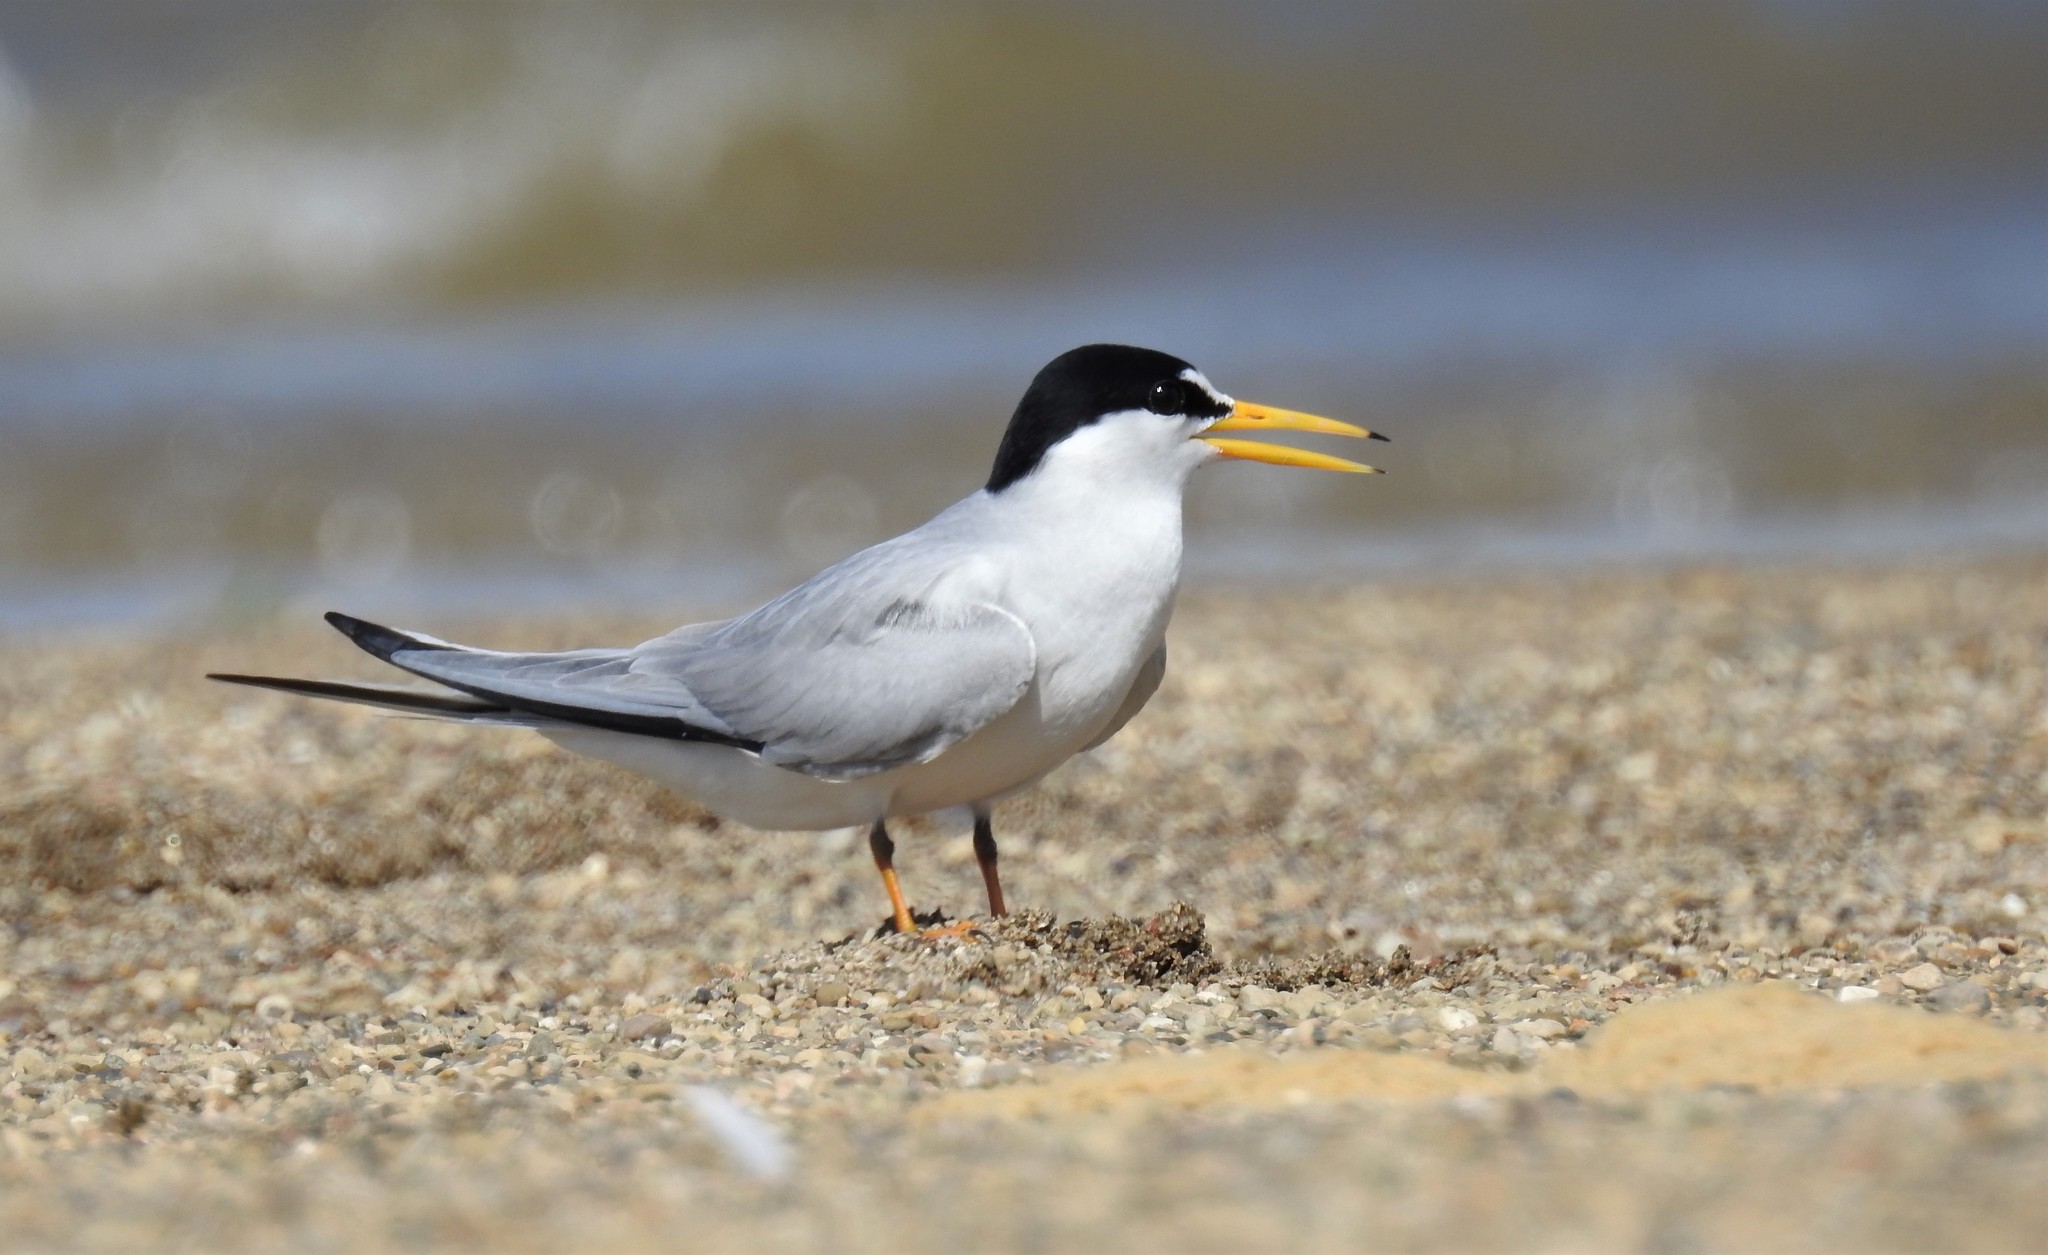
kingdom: Animalia
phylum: Chordata
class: Aves
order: Charadriiformes
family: Laridae
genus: Sternula
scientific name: Sternula antillarum
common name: Least tern
